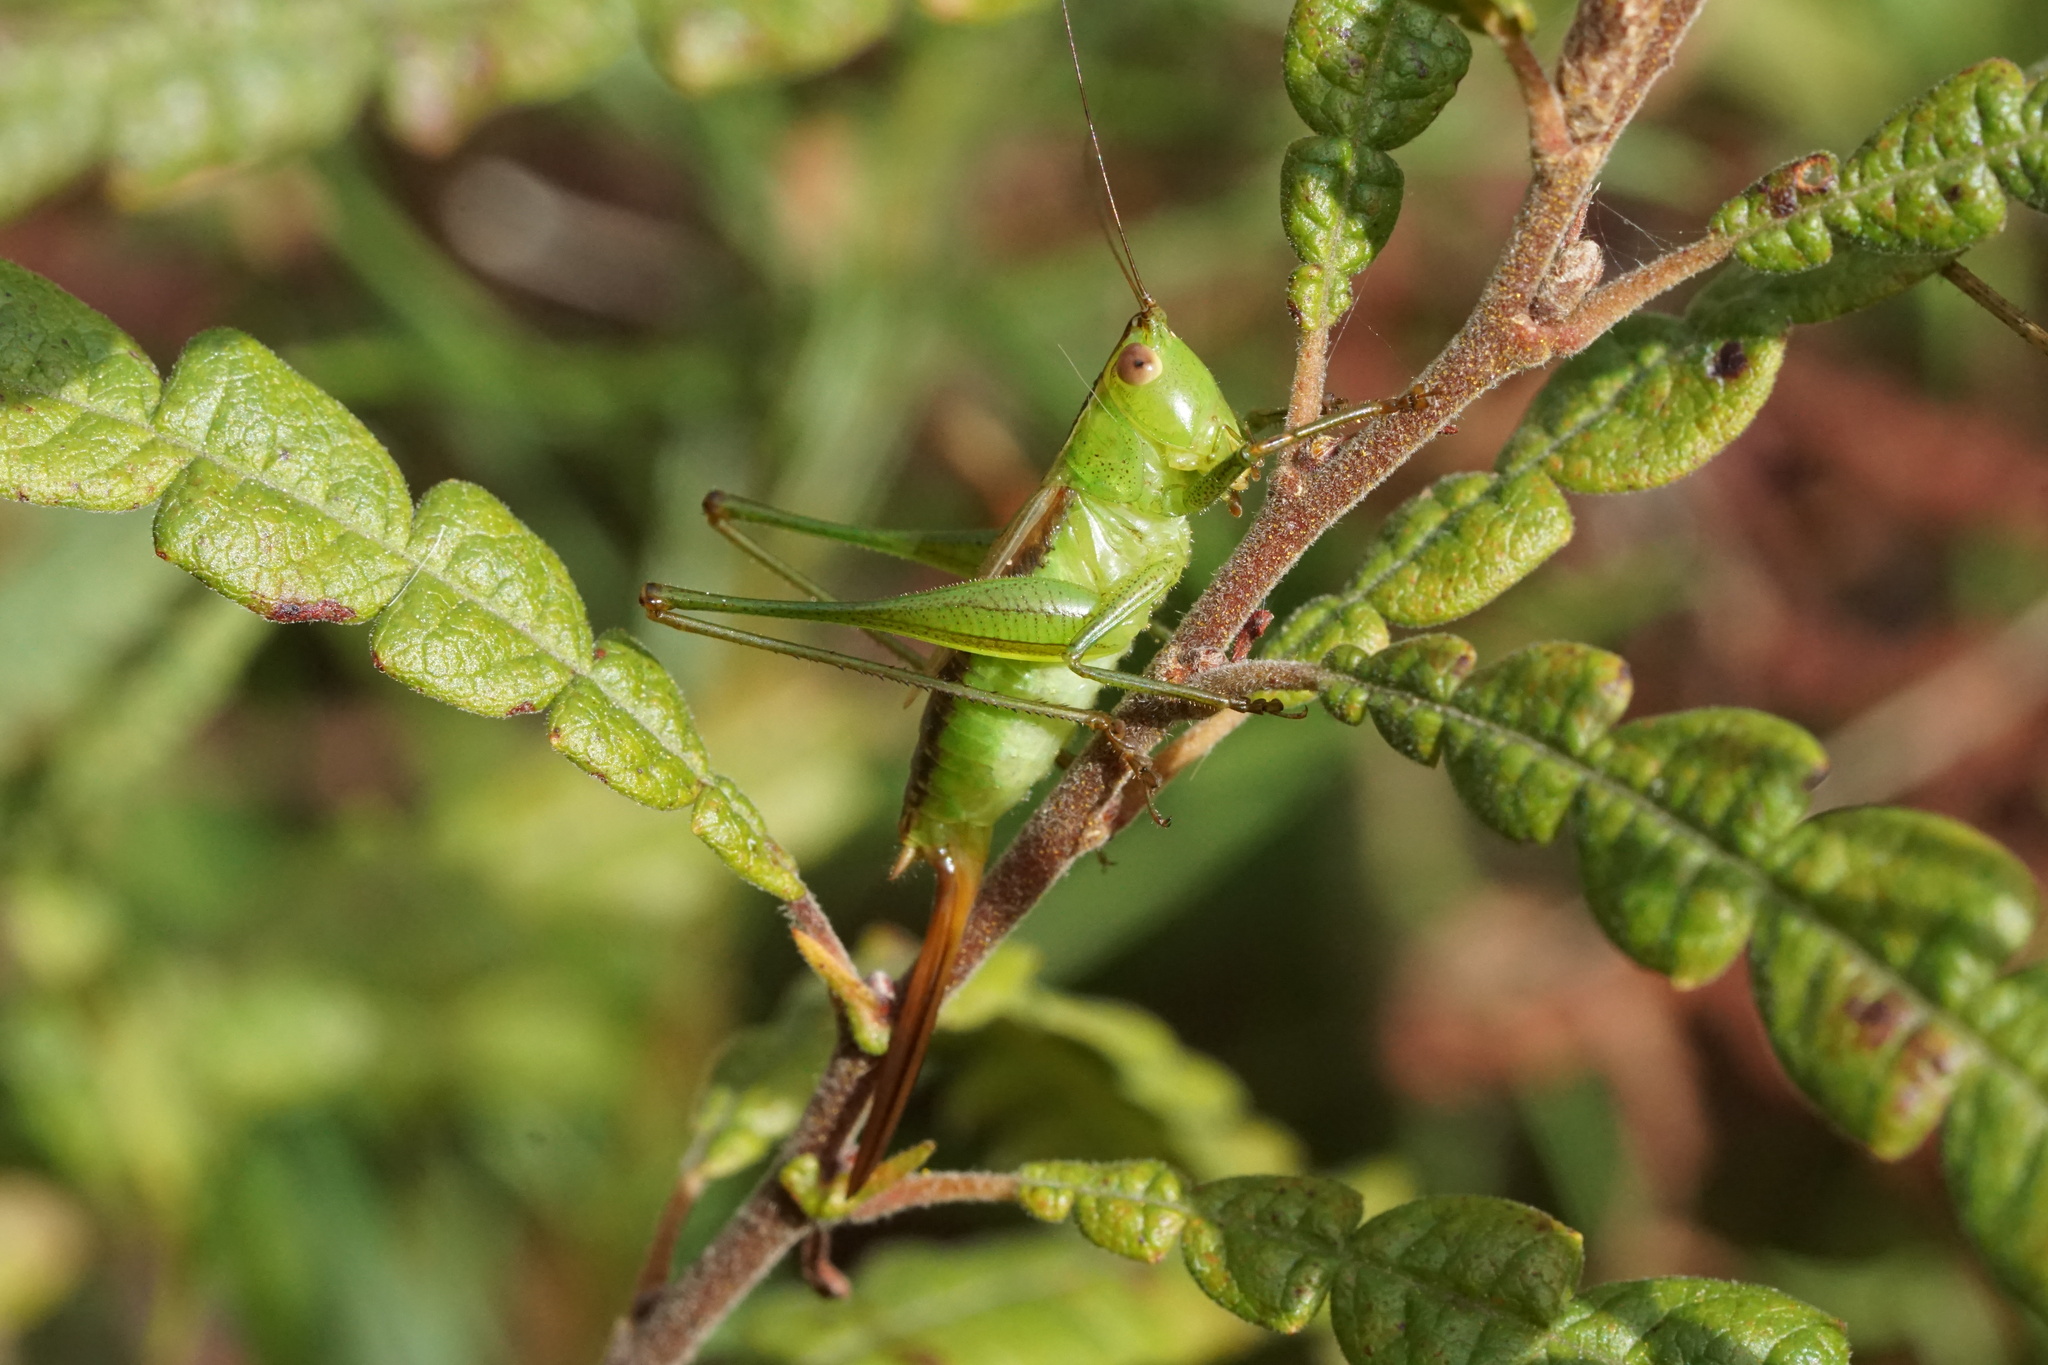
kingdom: Animalia
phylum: Arthropoda
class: Insecta
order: Orthoptera
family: Tettigoniidae
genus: Conocephalus
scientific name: Conocephalus brevipennis
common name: Short-winged meadow katydid
